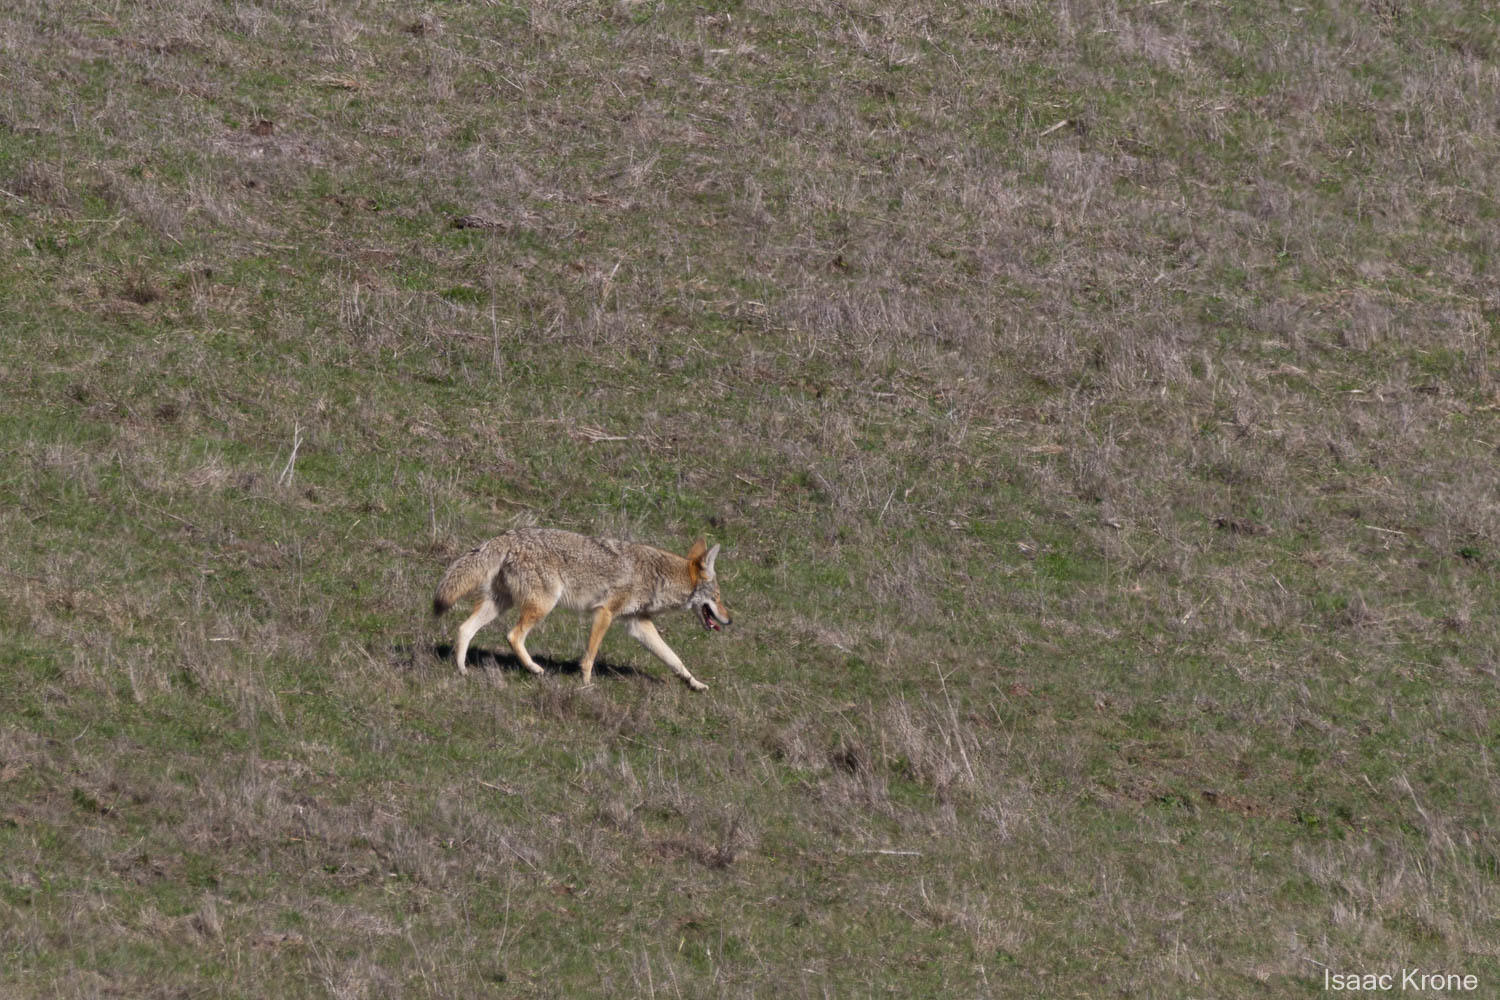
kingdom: Animalia
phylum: Chordata
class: Mammalia
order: Carnivora
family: Canidae
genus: Canis
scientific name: Canis latrans
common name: Coyote
